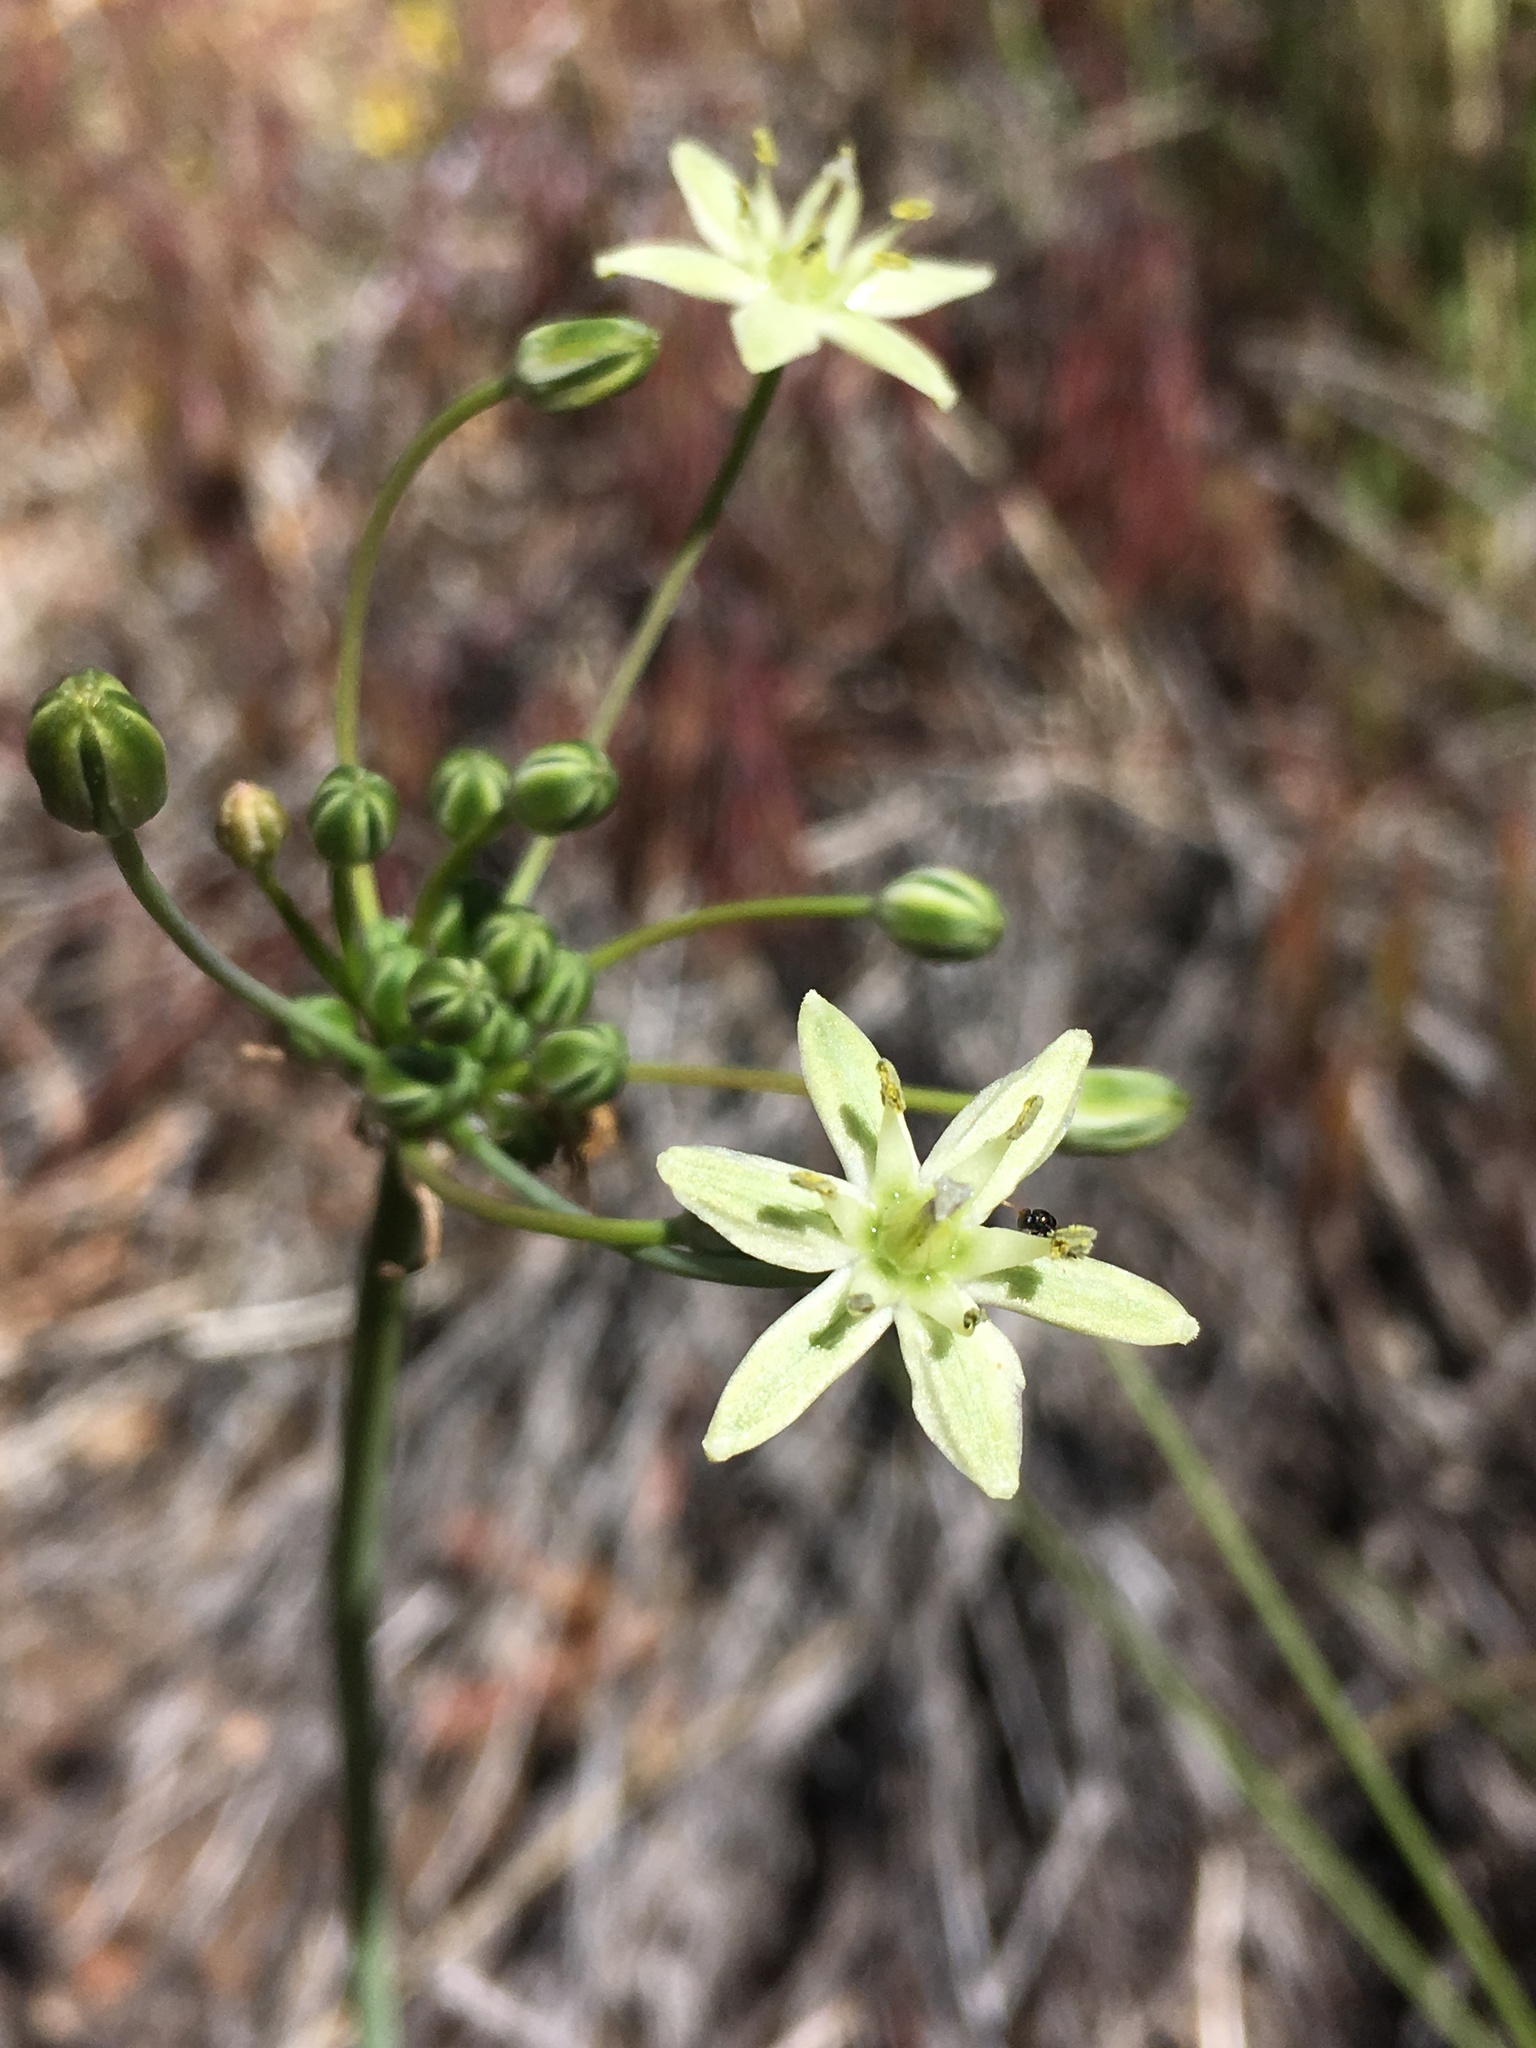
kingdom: Plantae
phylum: Tracheophyta
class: Liliopsida
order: Asparagales
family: Asparagaceae
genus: Muilla
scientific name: Muilla maritima
